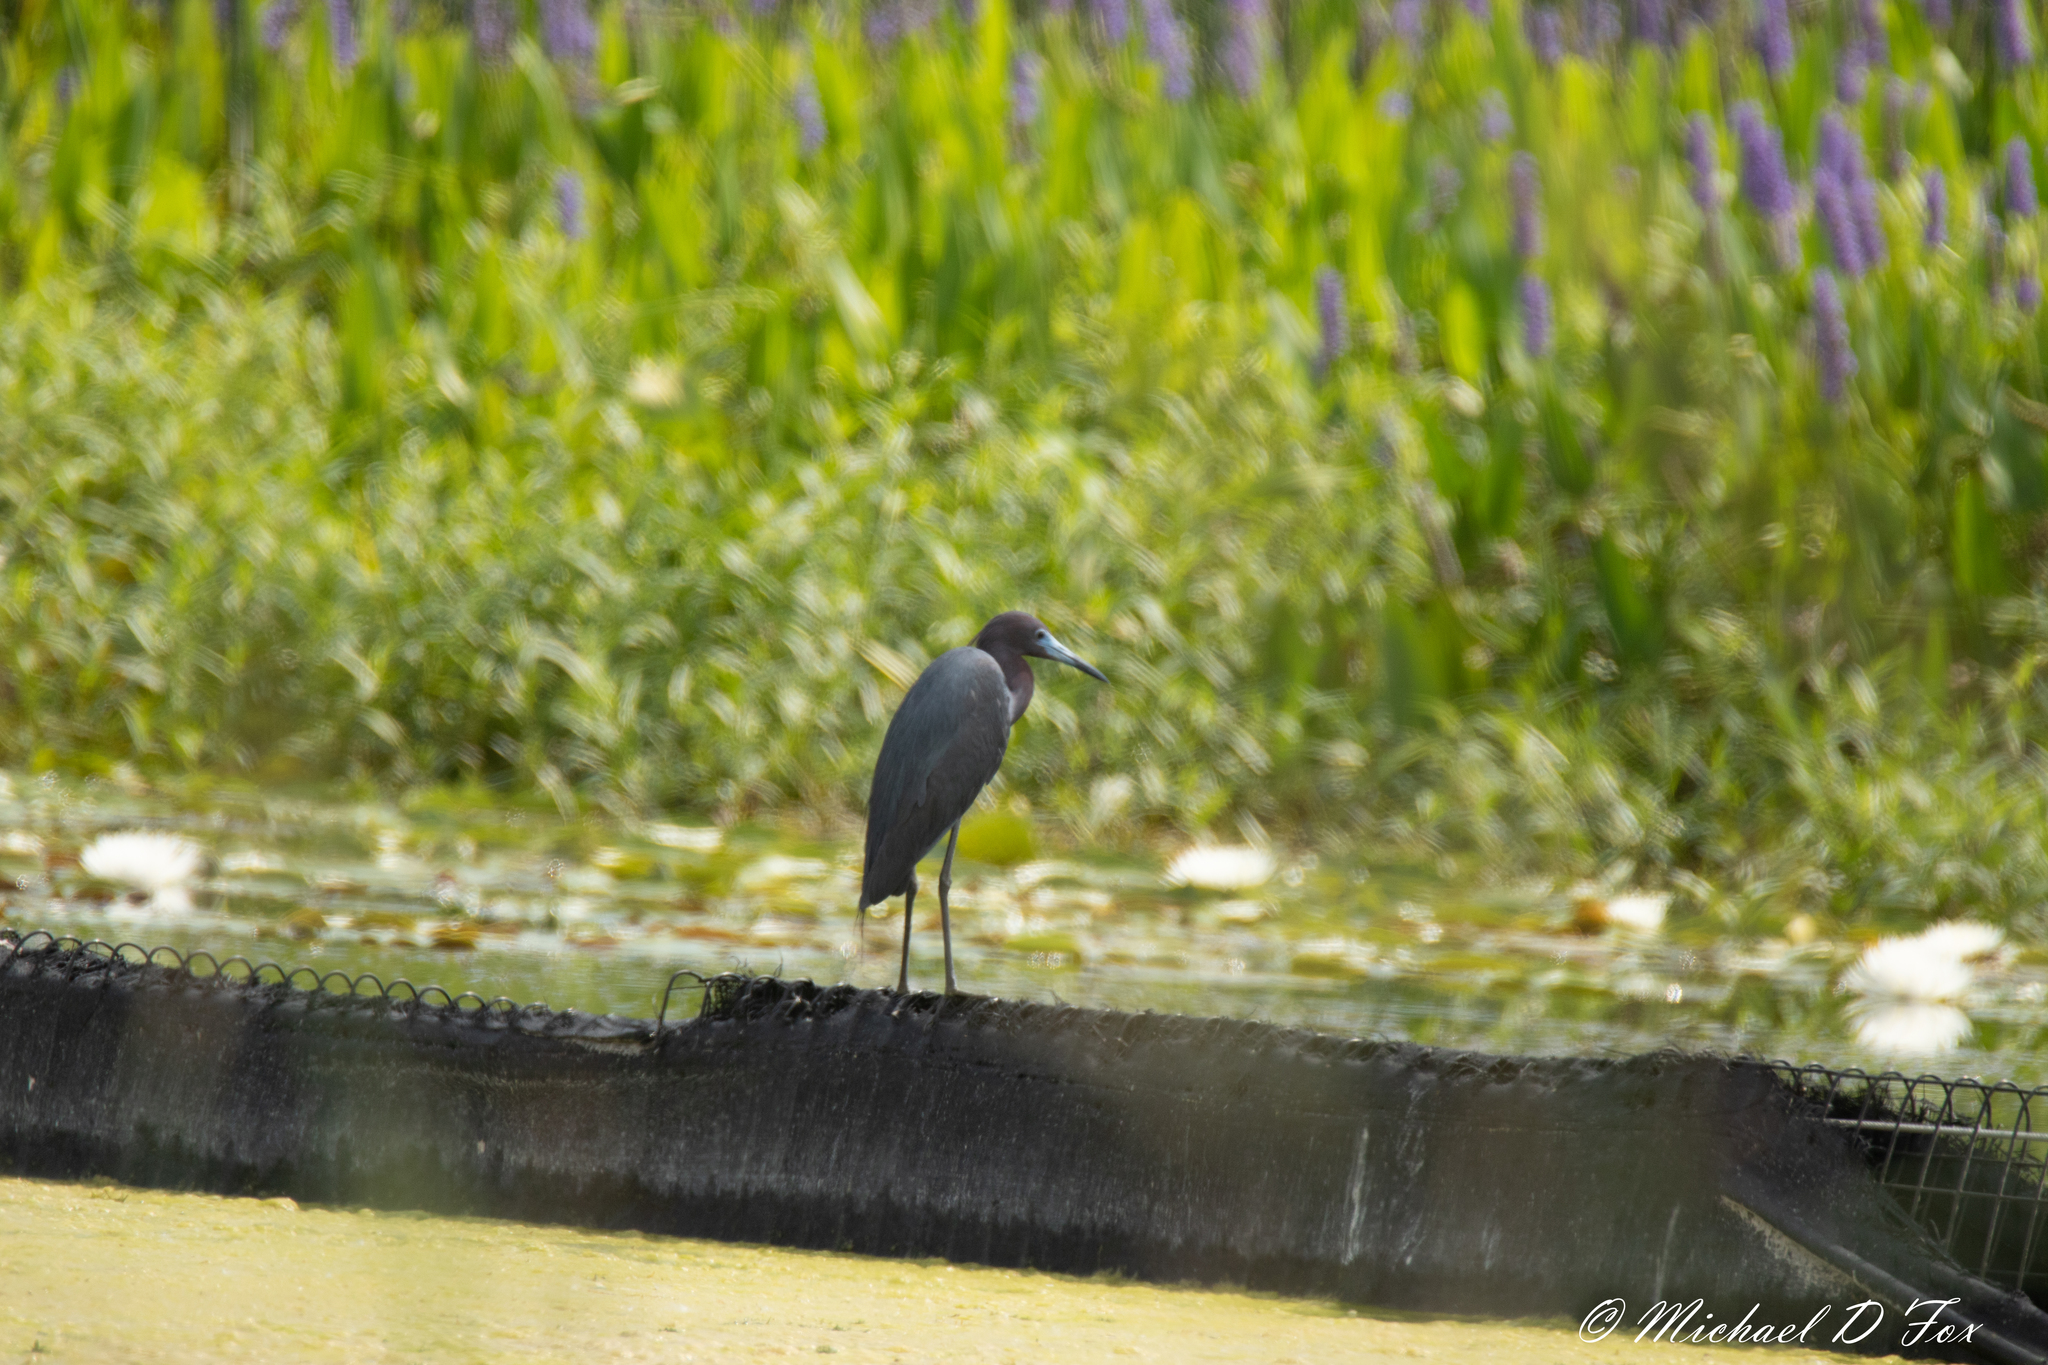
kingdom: Animalia
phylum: Chordata
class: Aves
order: Pelecaniformes
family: Ardeidae
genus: Egretta
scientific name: Egretta caerulea
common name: Little blue heron
